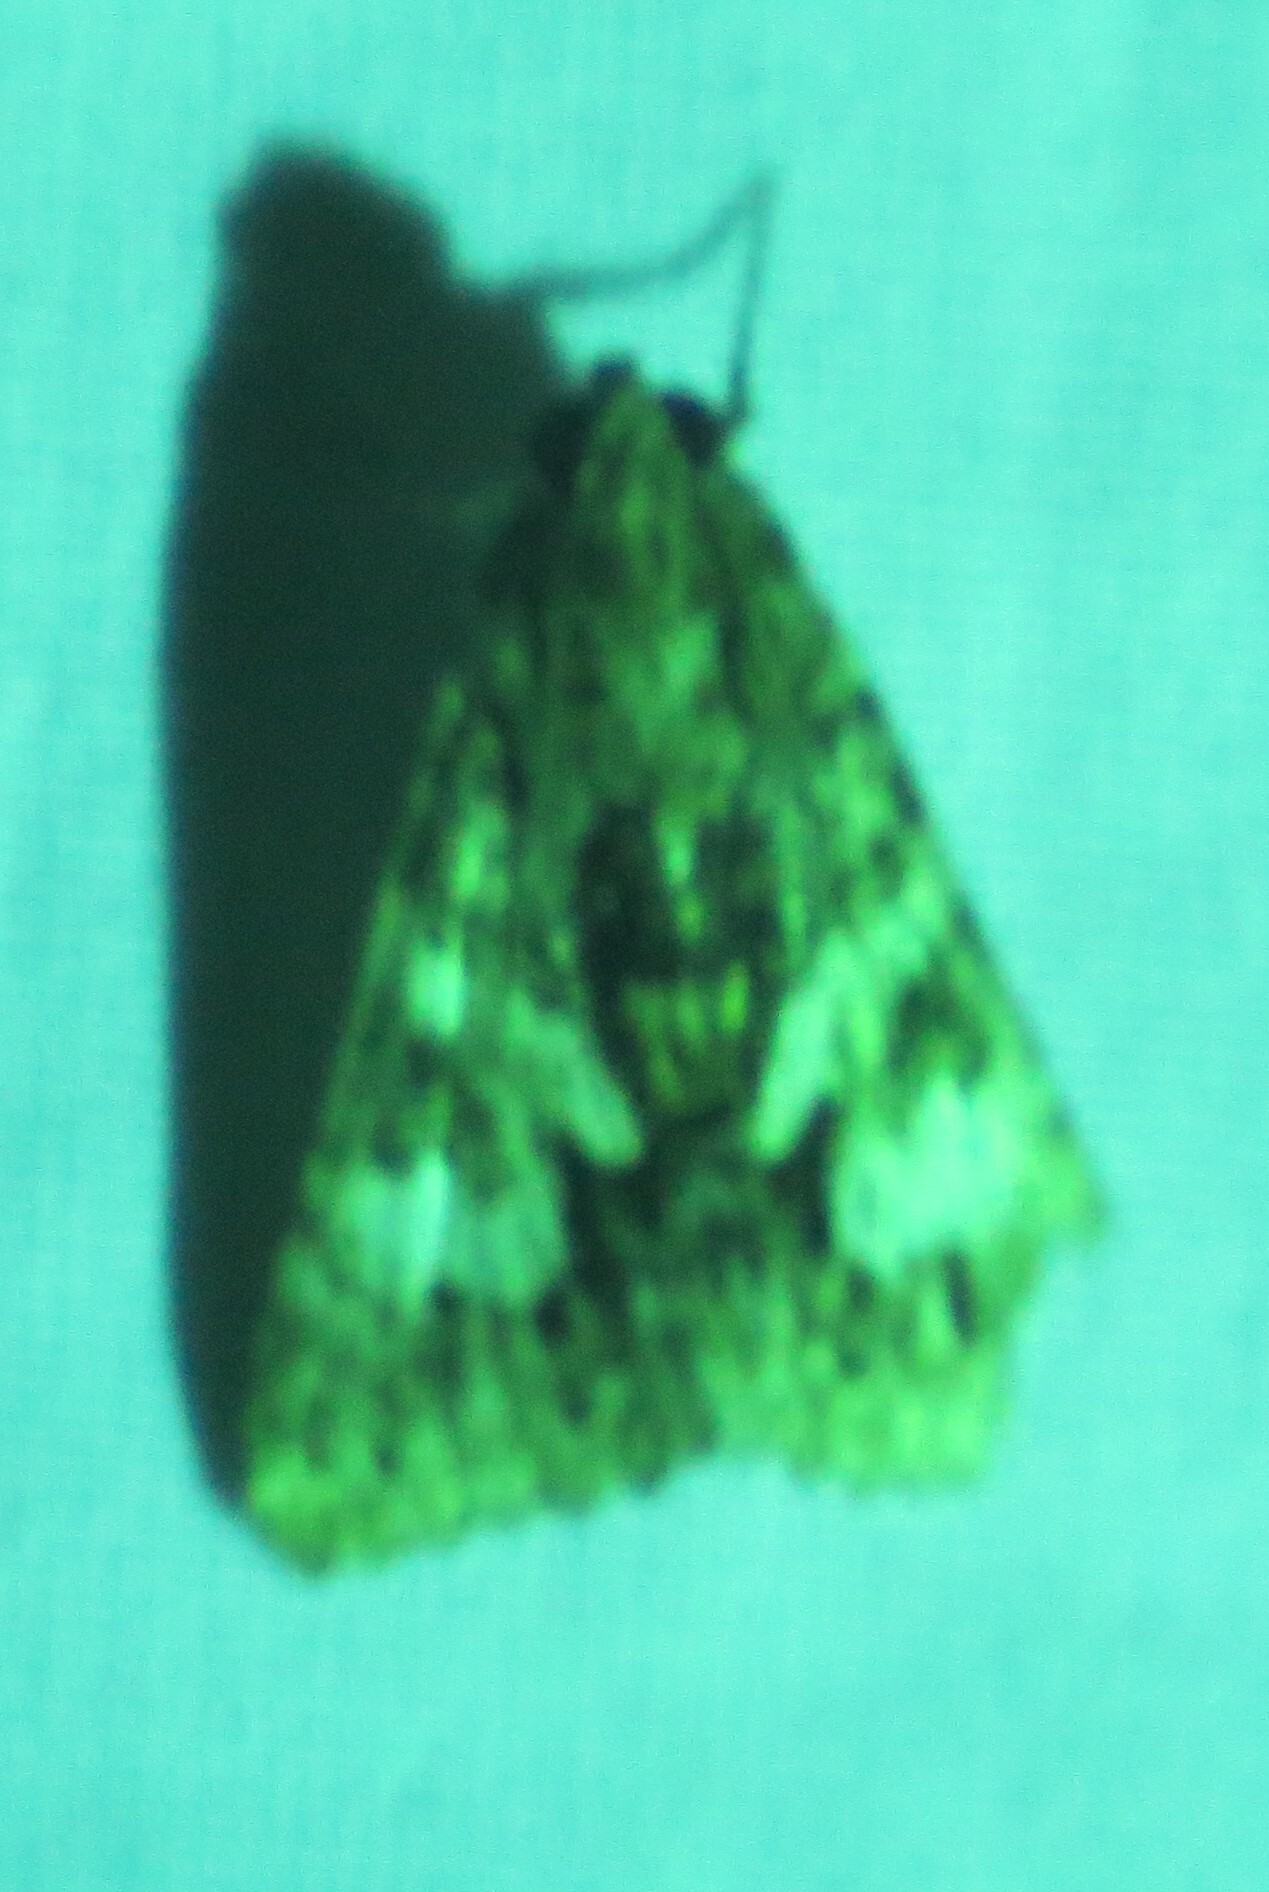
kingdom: Animalia
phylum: Arthropoda
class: Insecta
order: Lepidoptera
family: Erebidae
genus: Melipotis
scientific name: Melipotis jucunda
